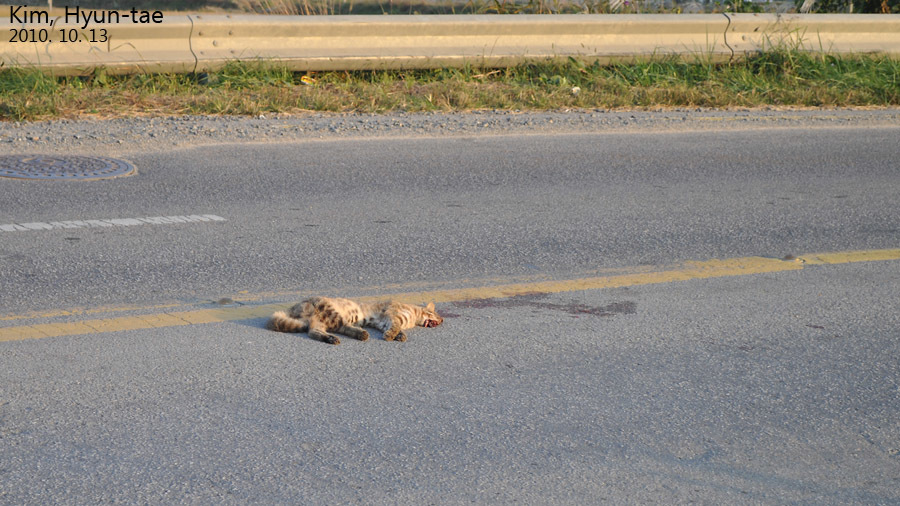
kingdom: Animalia
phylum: Chordata
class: Mammalia
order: Carnivora
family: Felidae
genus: Prionailurus
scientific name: Prionailurus bengalensis
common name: Leopard cat
